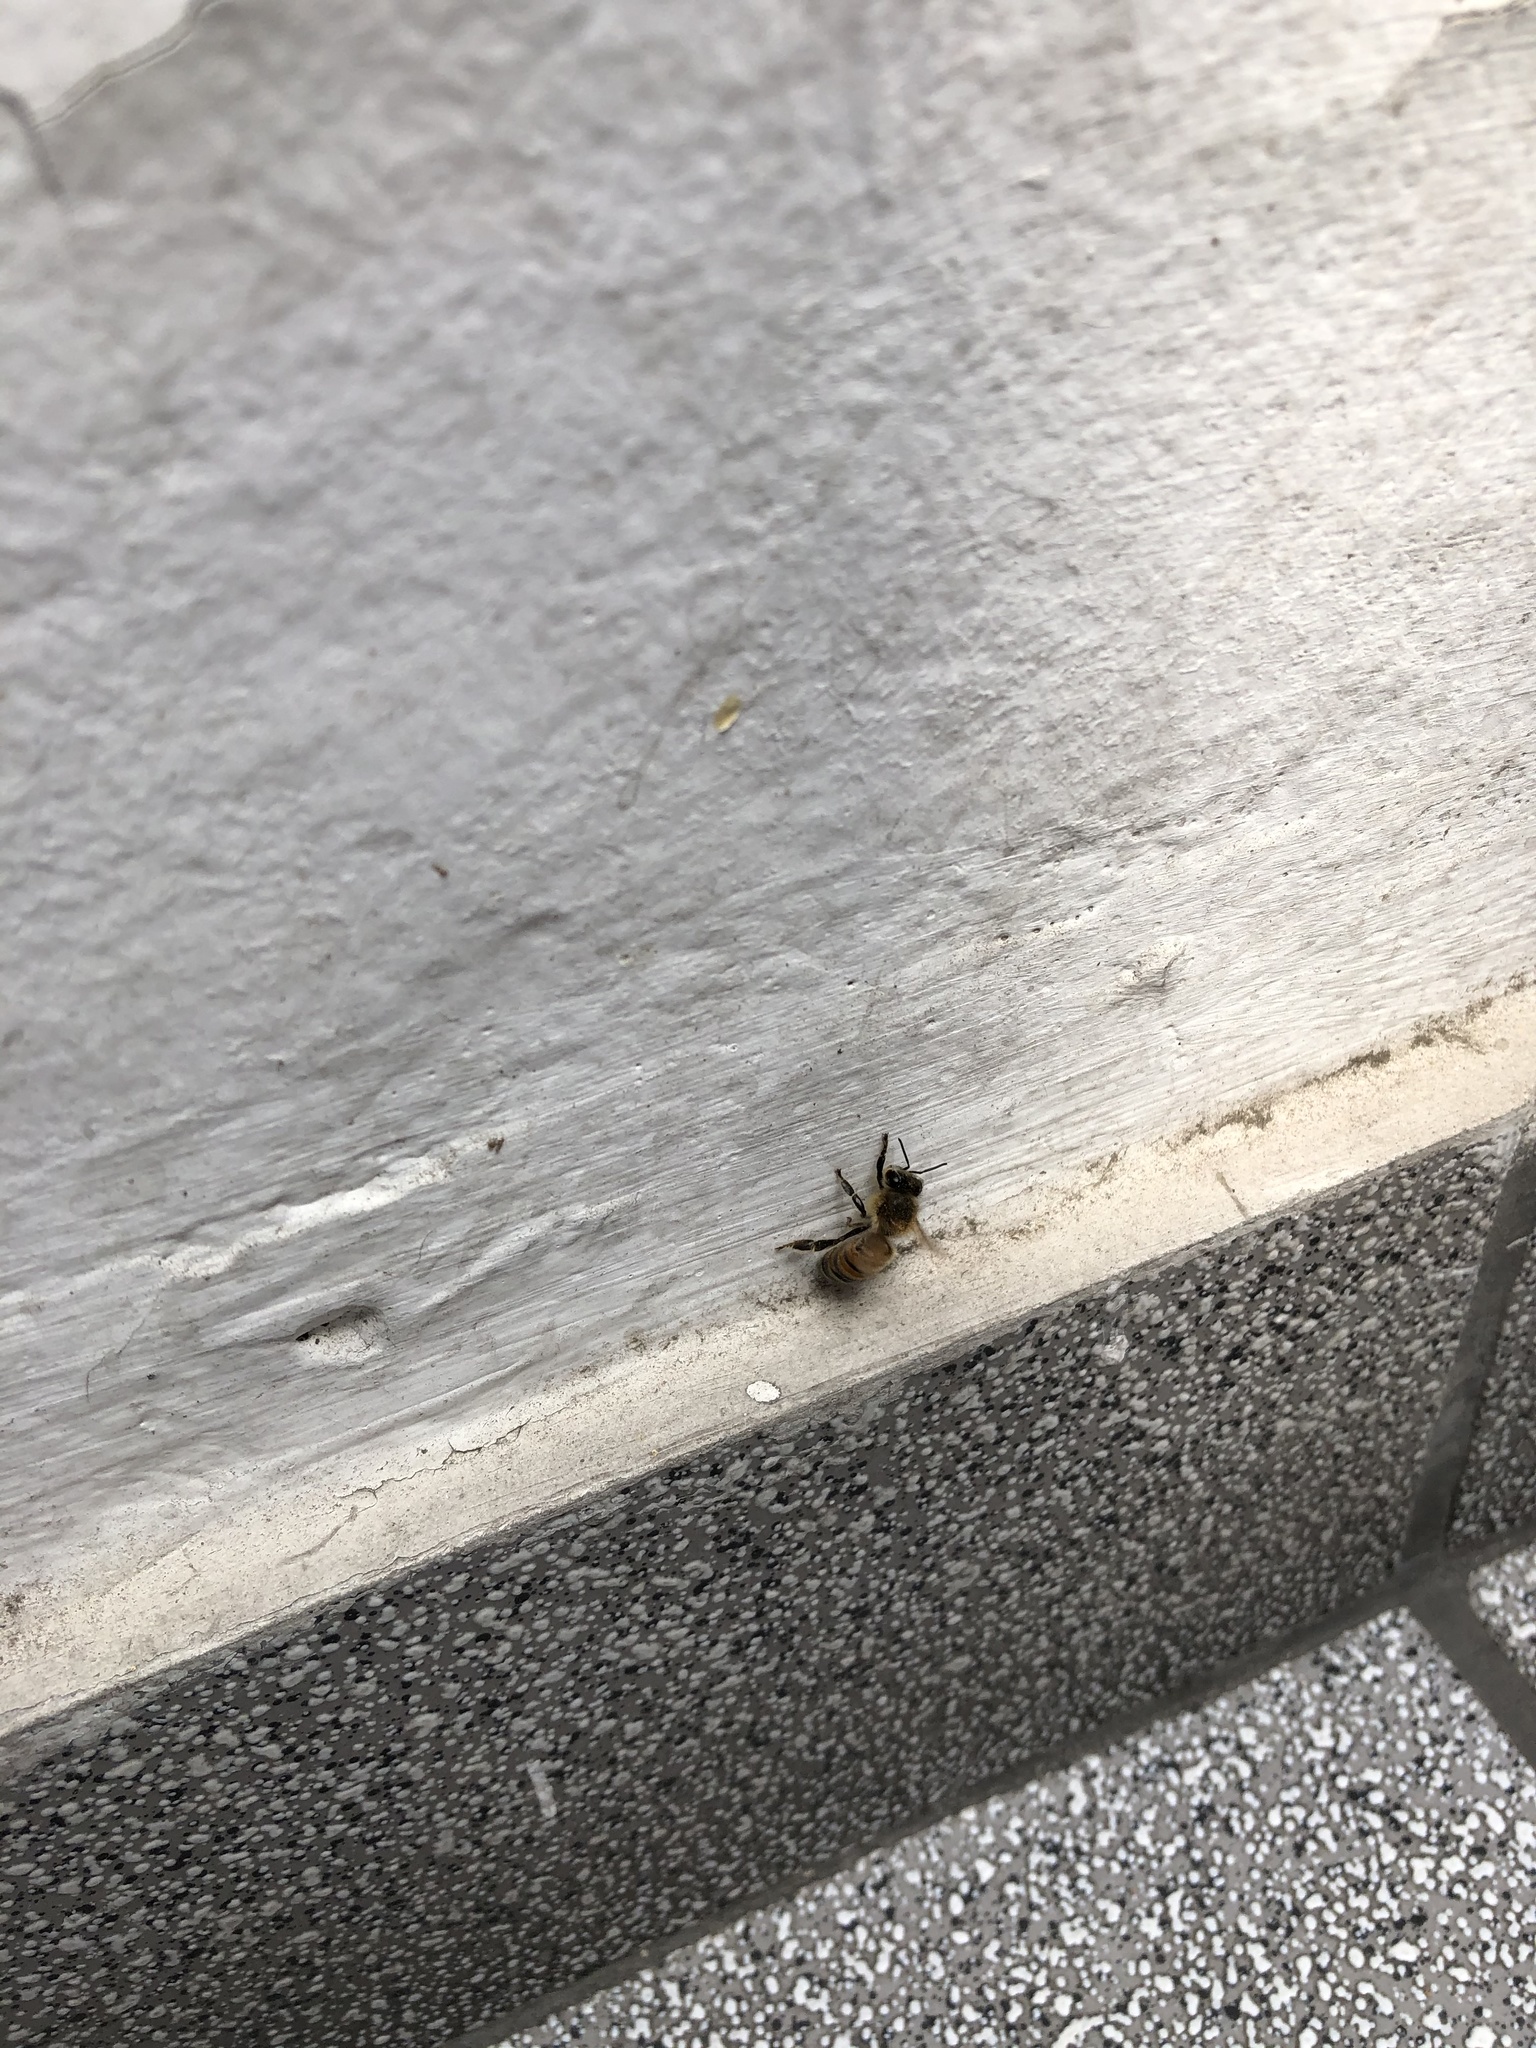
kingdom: Animalia
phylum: Arthropoda
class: Insecta
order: Hymenoptera
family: Apidae
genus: Apis
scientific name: Apis mellifera
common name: Honey bee
